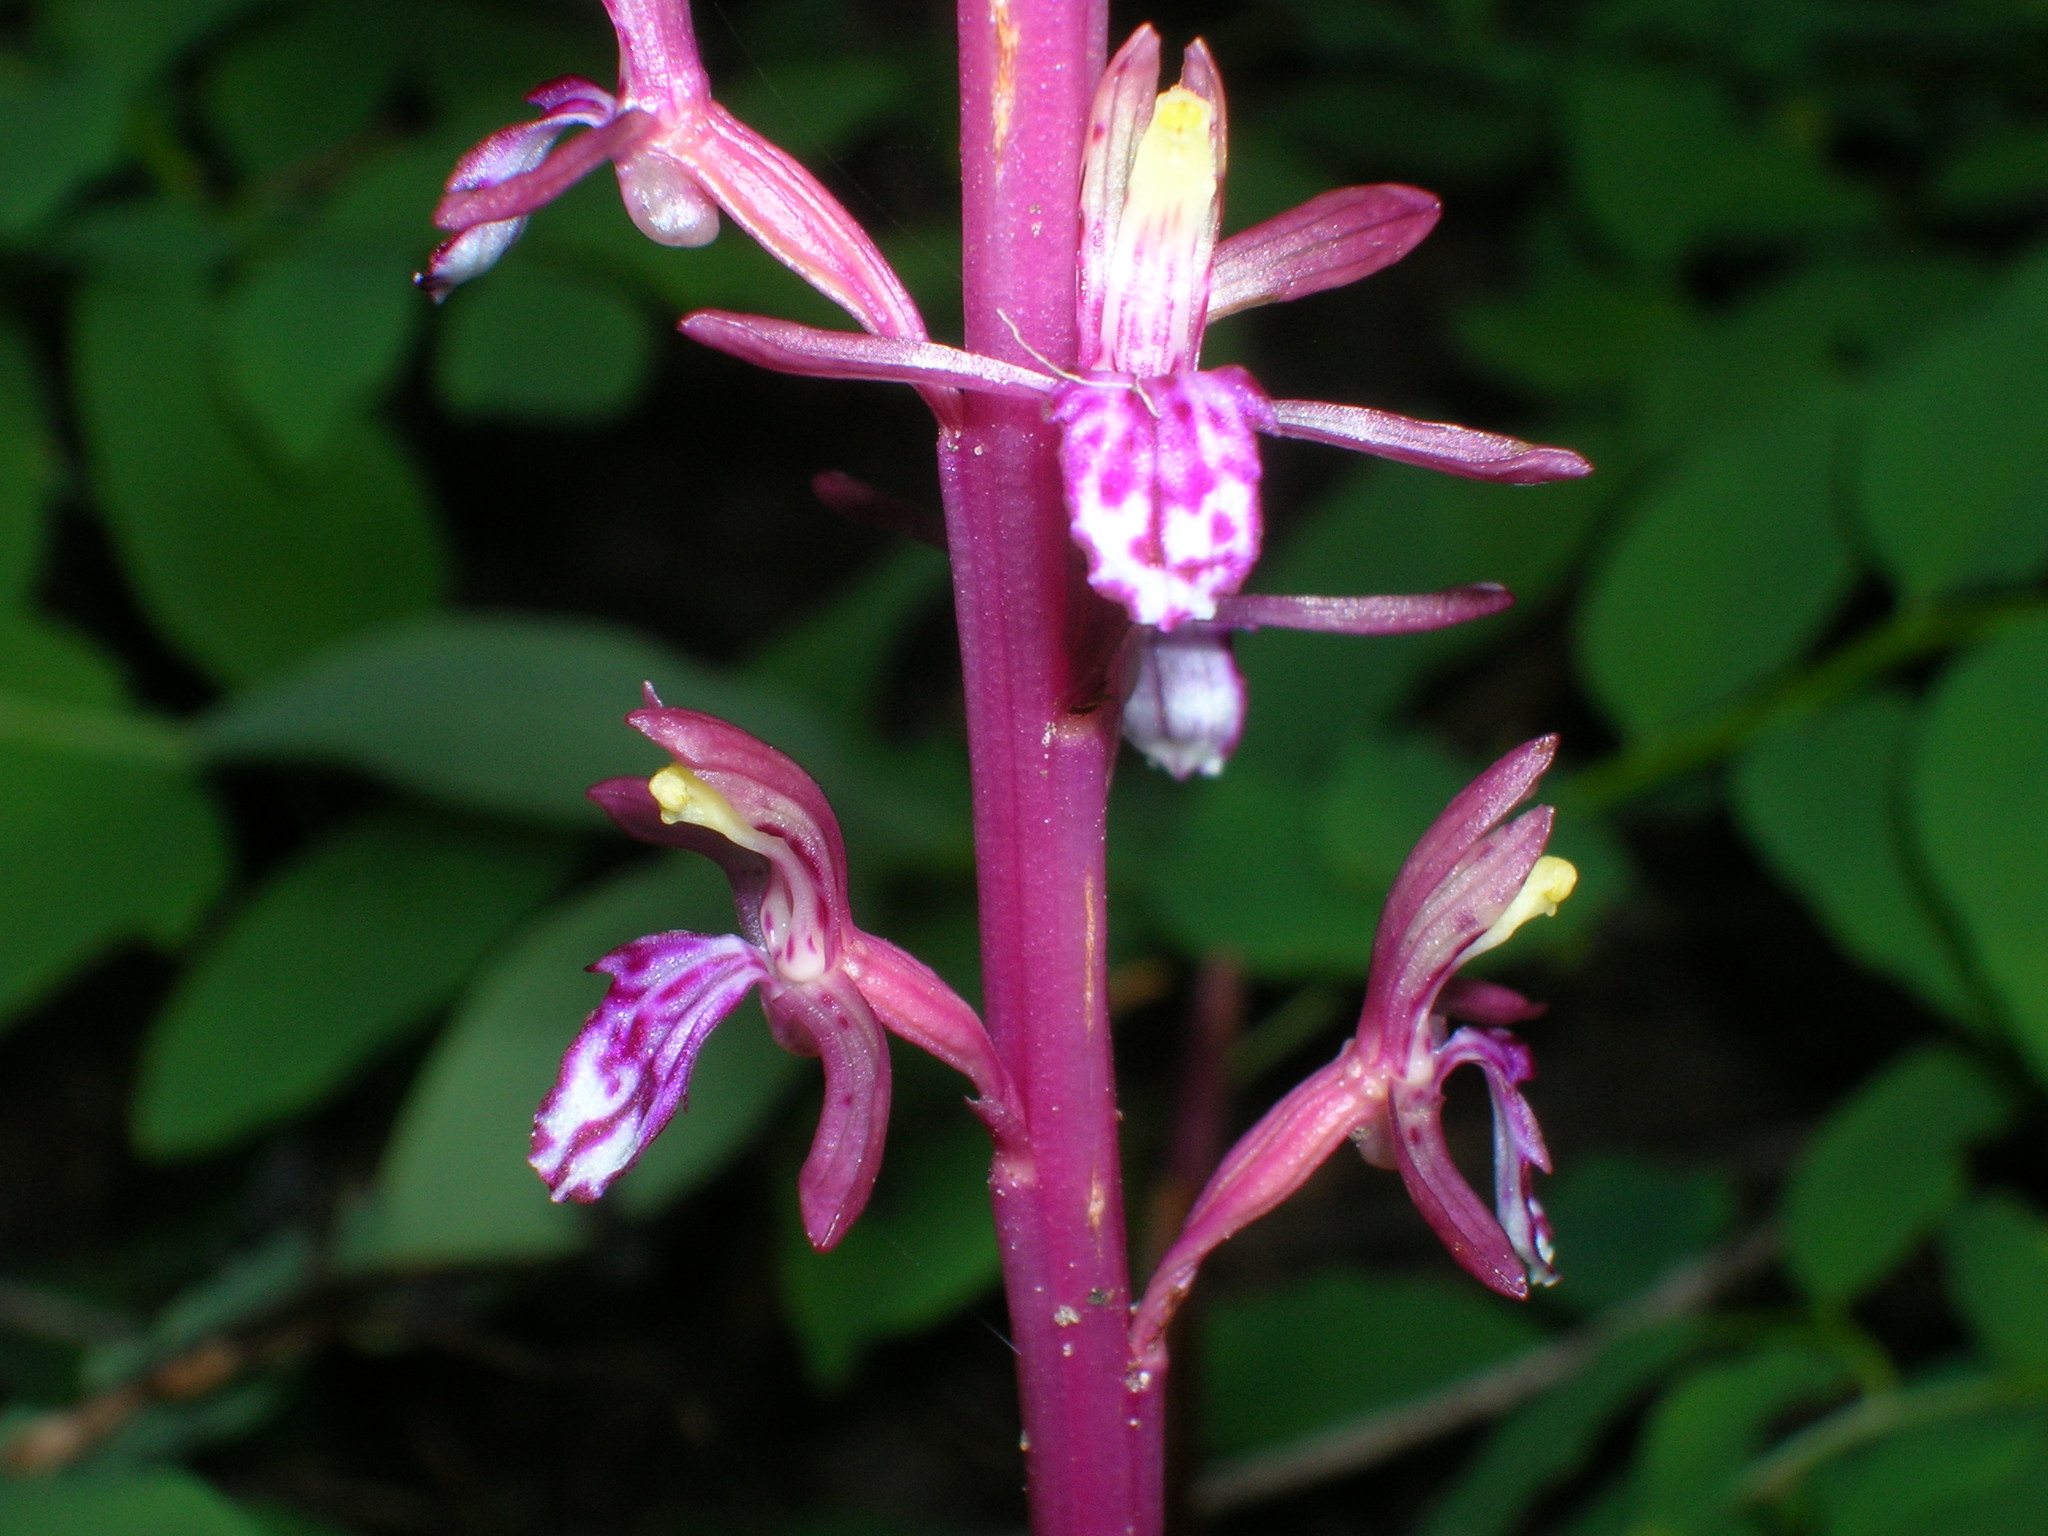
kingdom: Plantae
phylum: Tracheophyta
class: Liliopsida
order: Asparagales
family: Orchidaceae
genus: Corallorhiza
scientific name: Corallorhiza mertensiana
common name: Pacific coralroot
